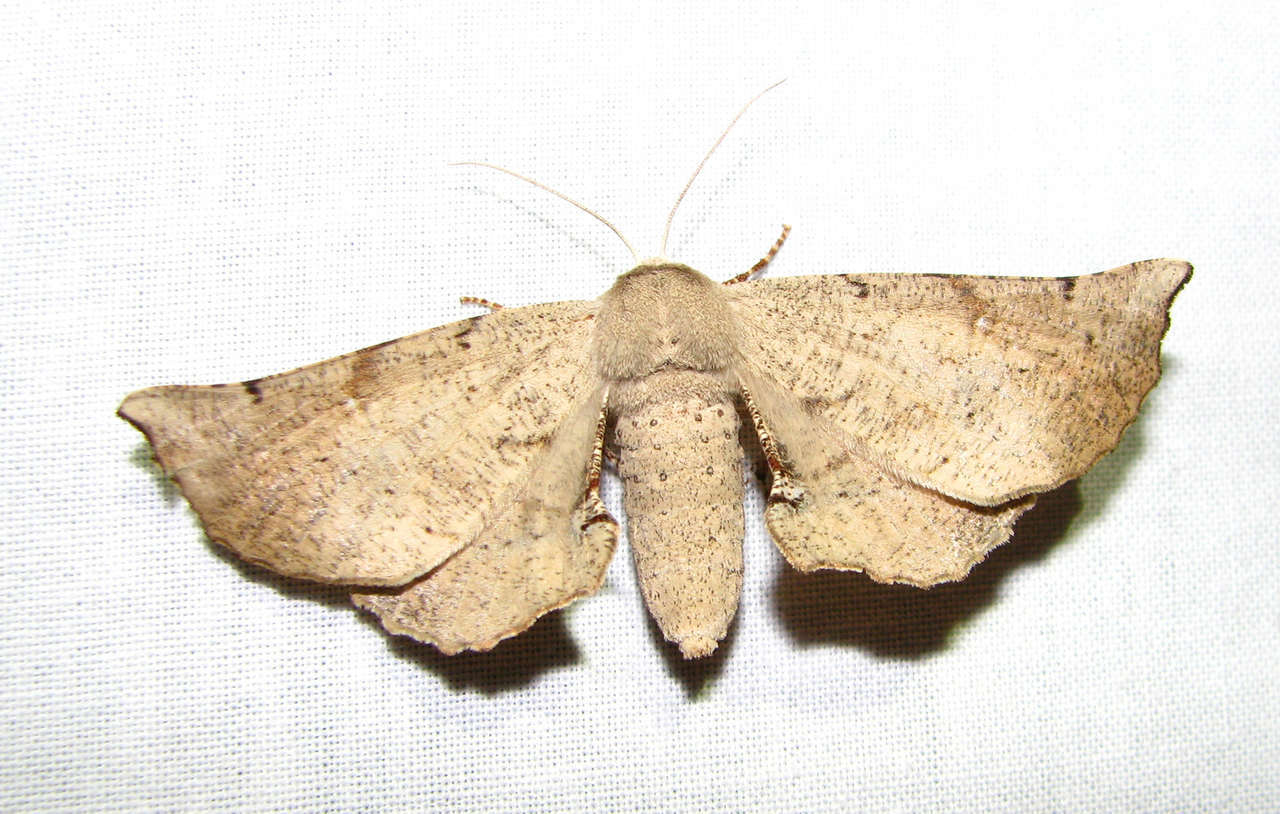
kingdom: Animalia
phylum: Arthropoda
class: Insecta
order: Lepidoptera
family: Geometridae
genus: Circopetes
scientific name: Circopetes obtusata
